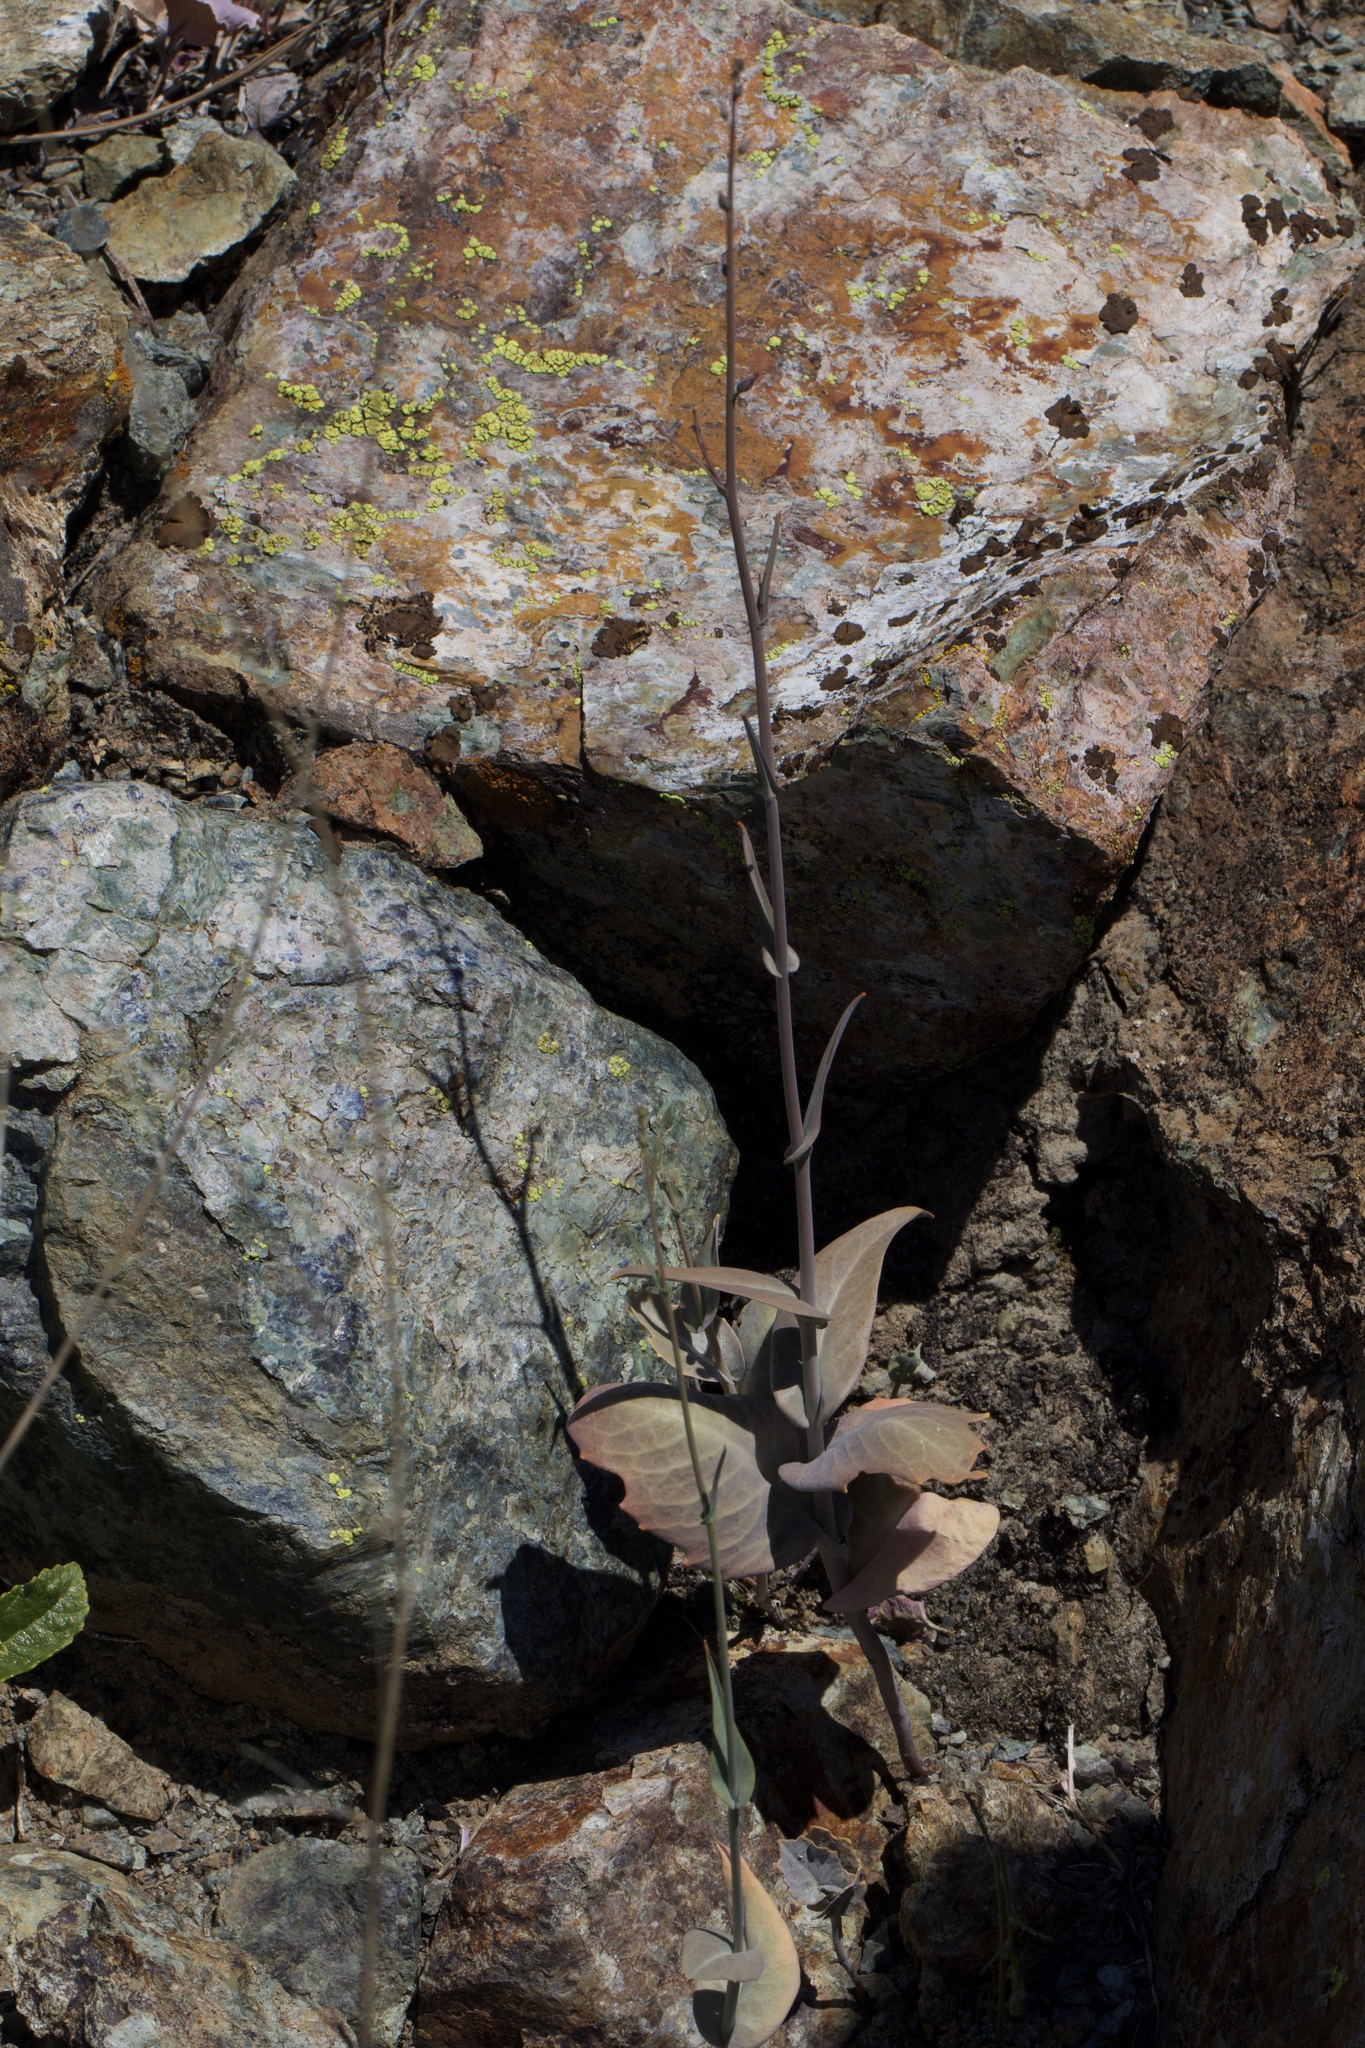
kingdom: Plantae
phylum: Tracheophyta
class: Magnoliopsida
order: Brassicales
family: Brassicaceae
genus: Streptanthus
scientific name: Streptanthus breweri
